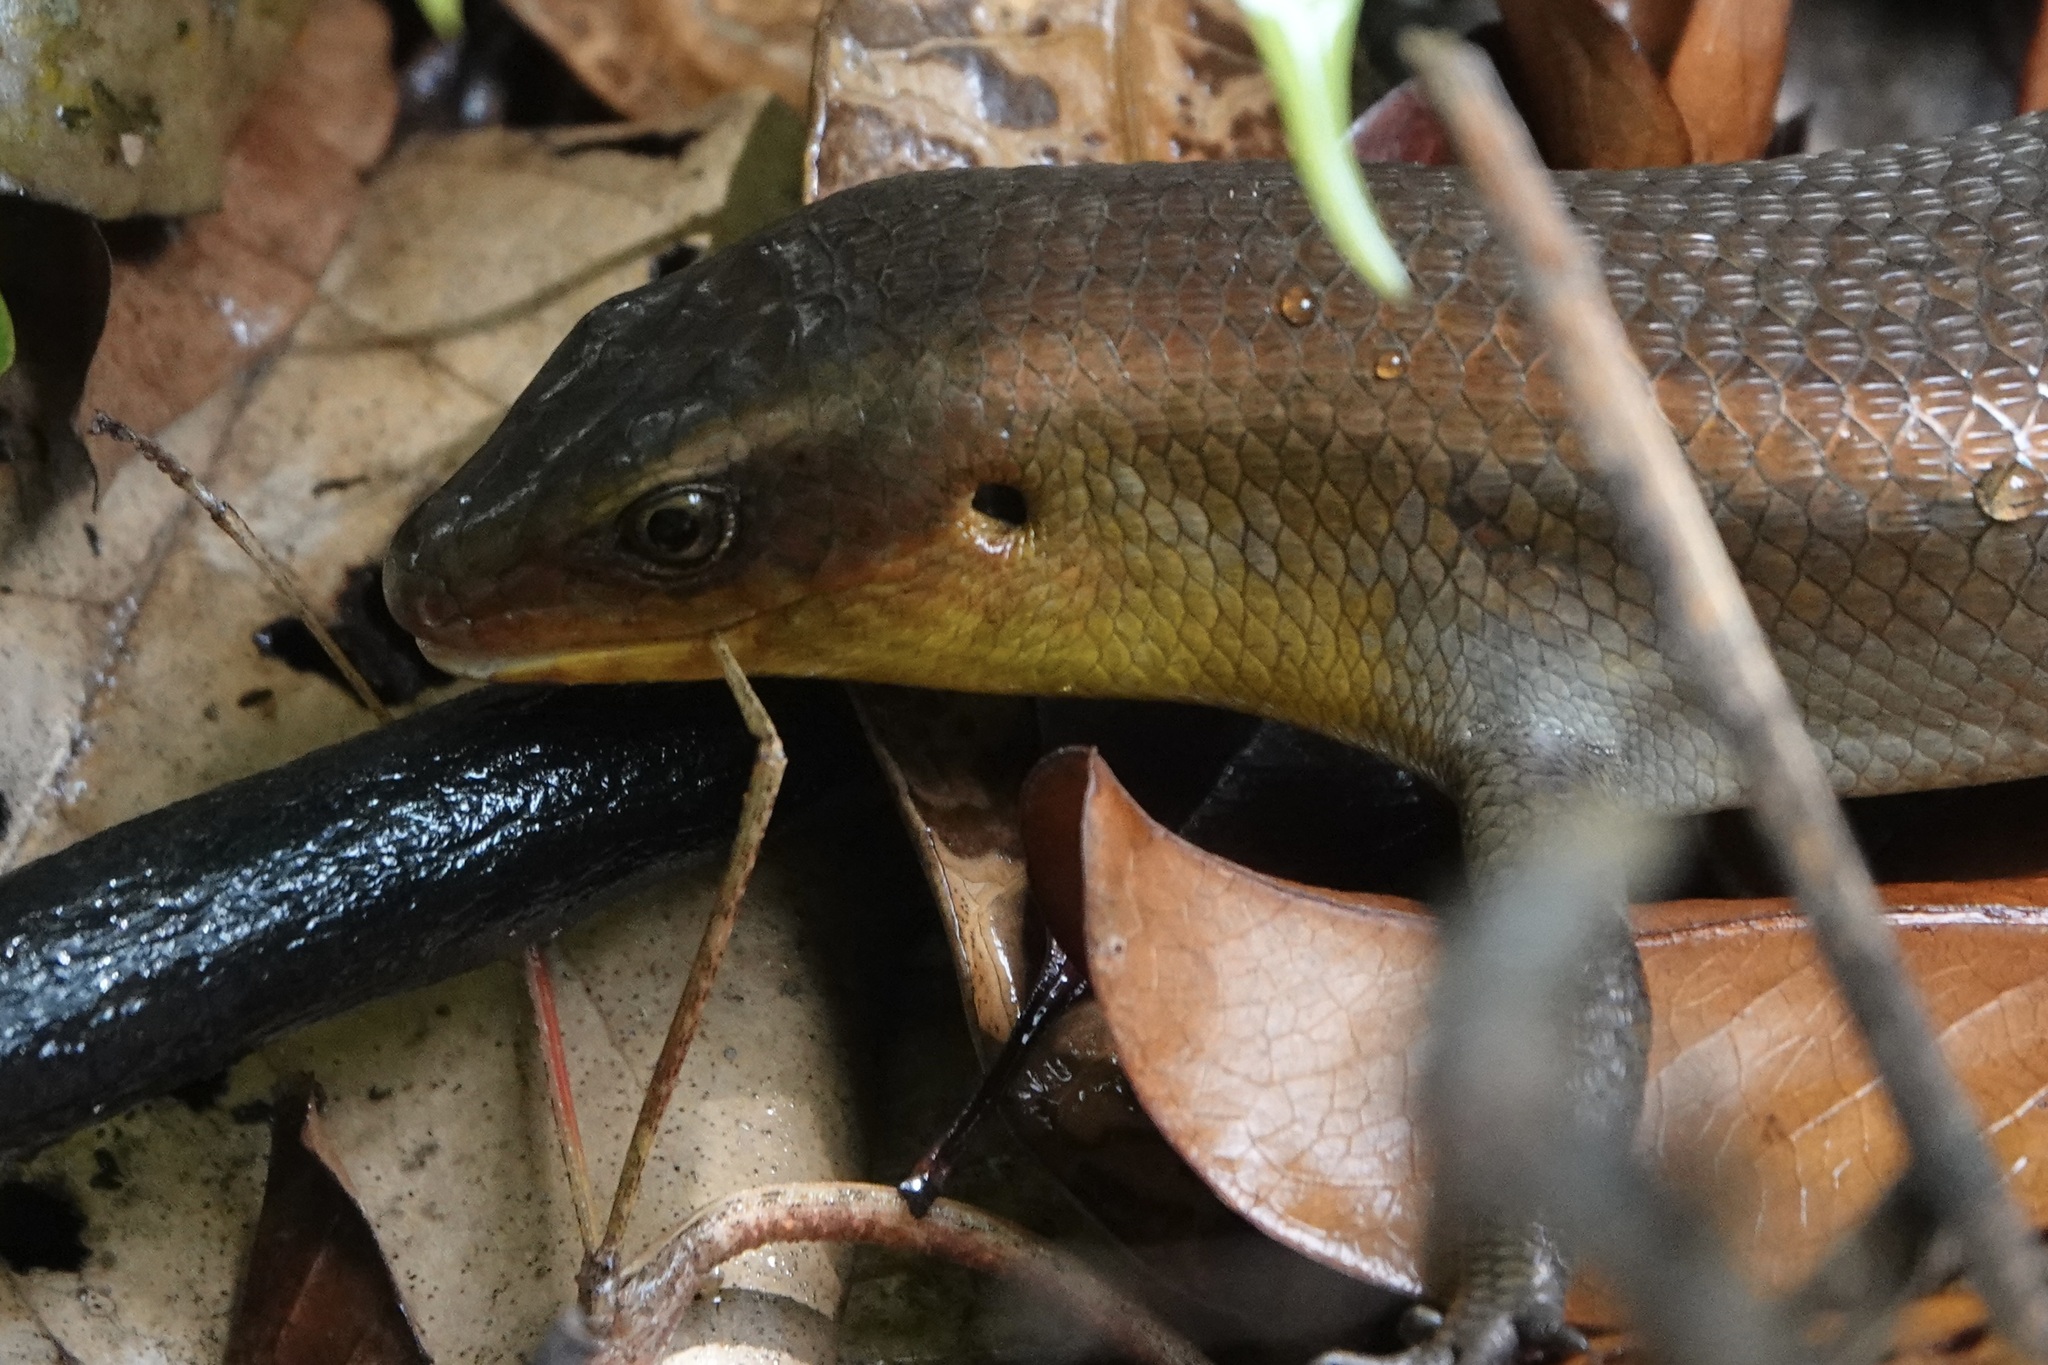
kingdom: Animalia
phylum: Chordata
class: Squamata
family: Scincidae
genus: Eutropis
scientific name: Eutropis multifasciata
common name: Common mabuya
